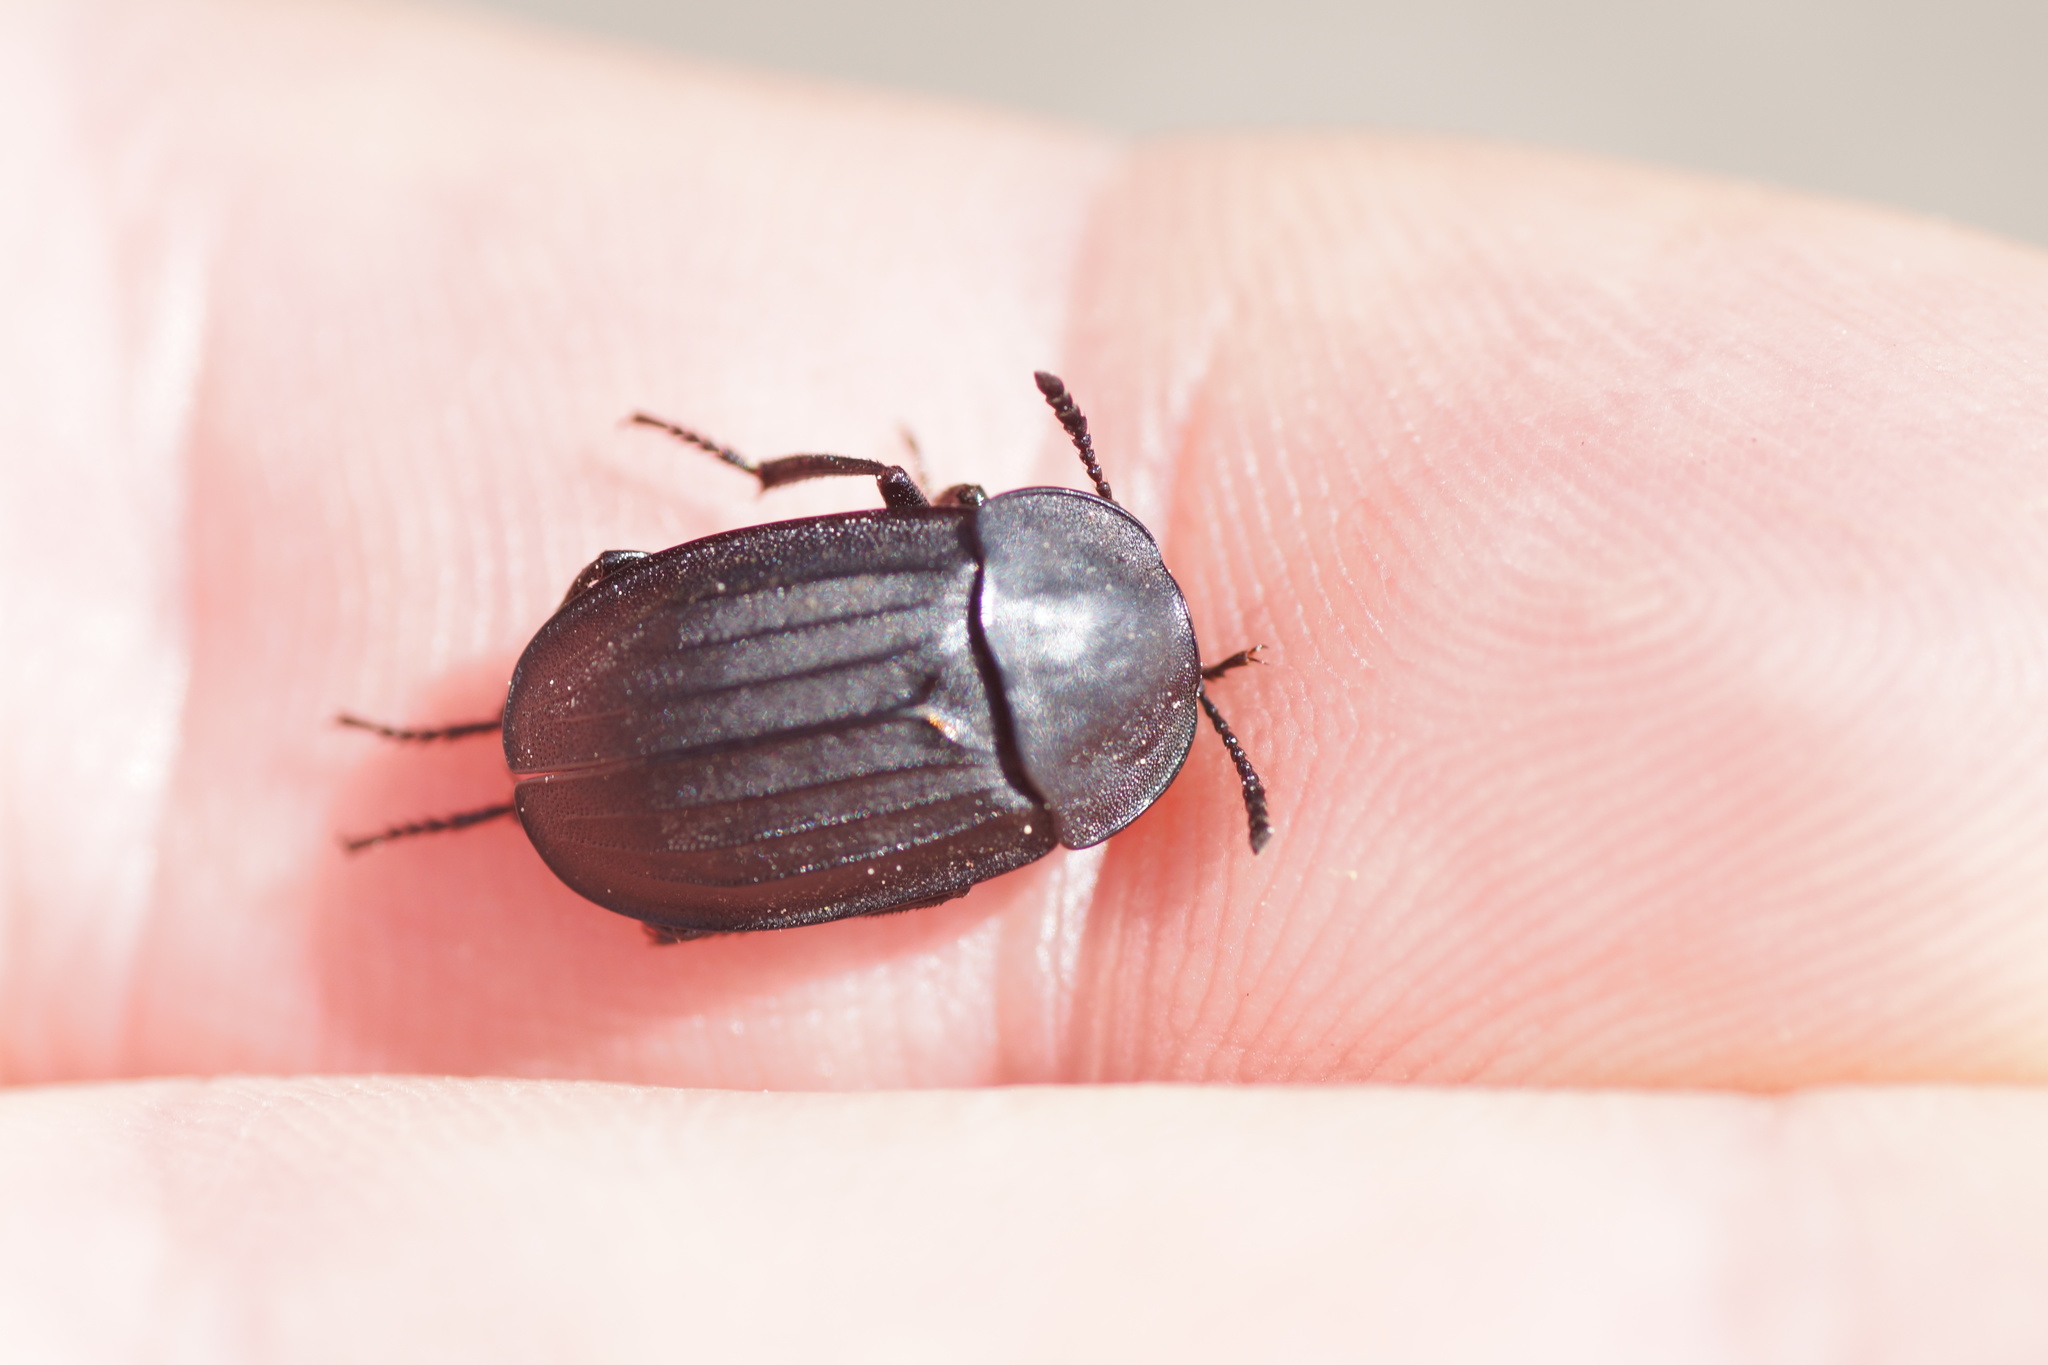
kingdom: Animalia
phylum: Arthropoda
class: Insecta
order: Coleoptera
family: Staphylinidae
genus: Silpha
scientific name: Silpha tristis
